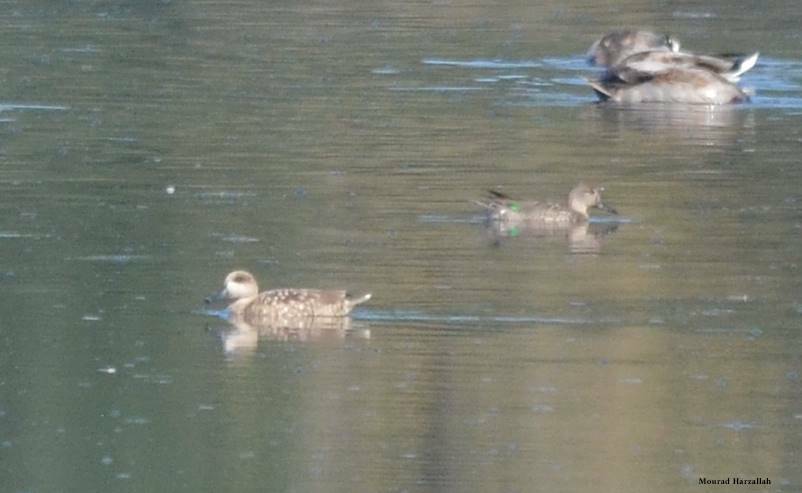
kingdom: Animalia
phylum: Chordata
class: Aves
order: Anseriformes
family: Anatidae
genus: Marmaronetta
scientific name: Marmaronetta angustirostris
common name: Marbled duck
